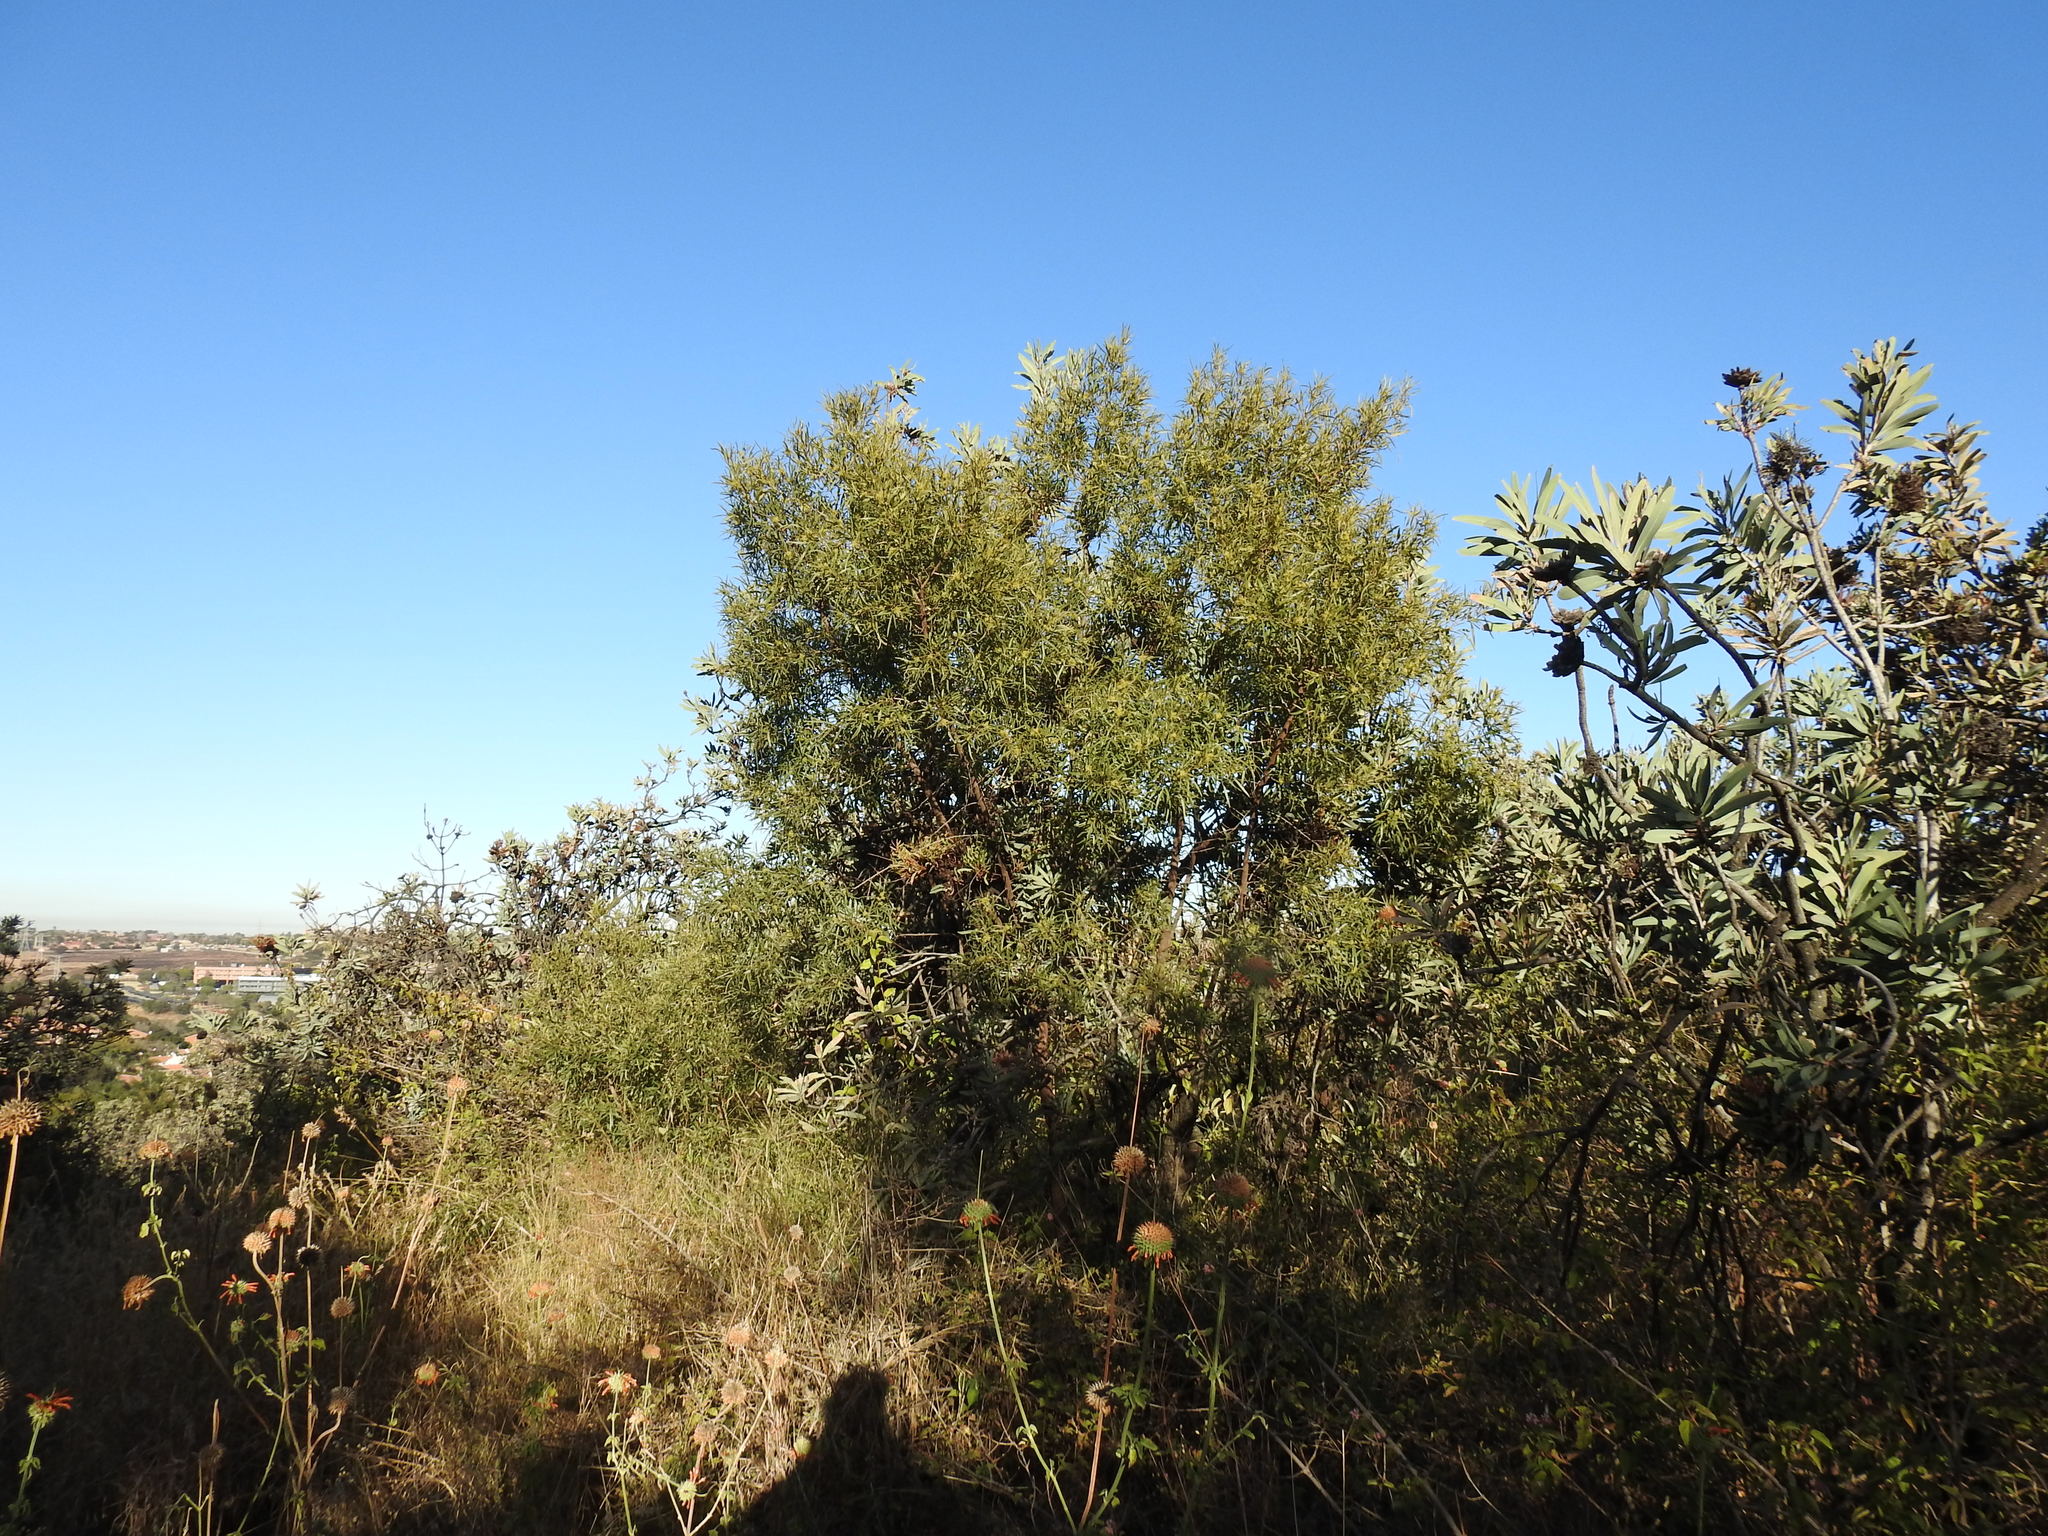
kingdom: Plantae
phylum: Tracheophyta
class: Magnoliopsida
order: Sapindales
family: Anacardiaceae
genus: Searsia
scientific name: Searsia lancea
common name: Cashew
